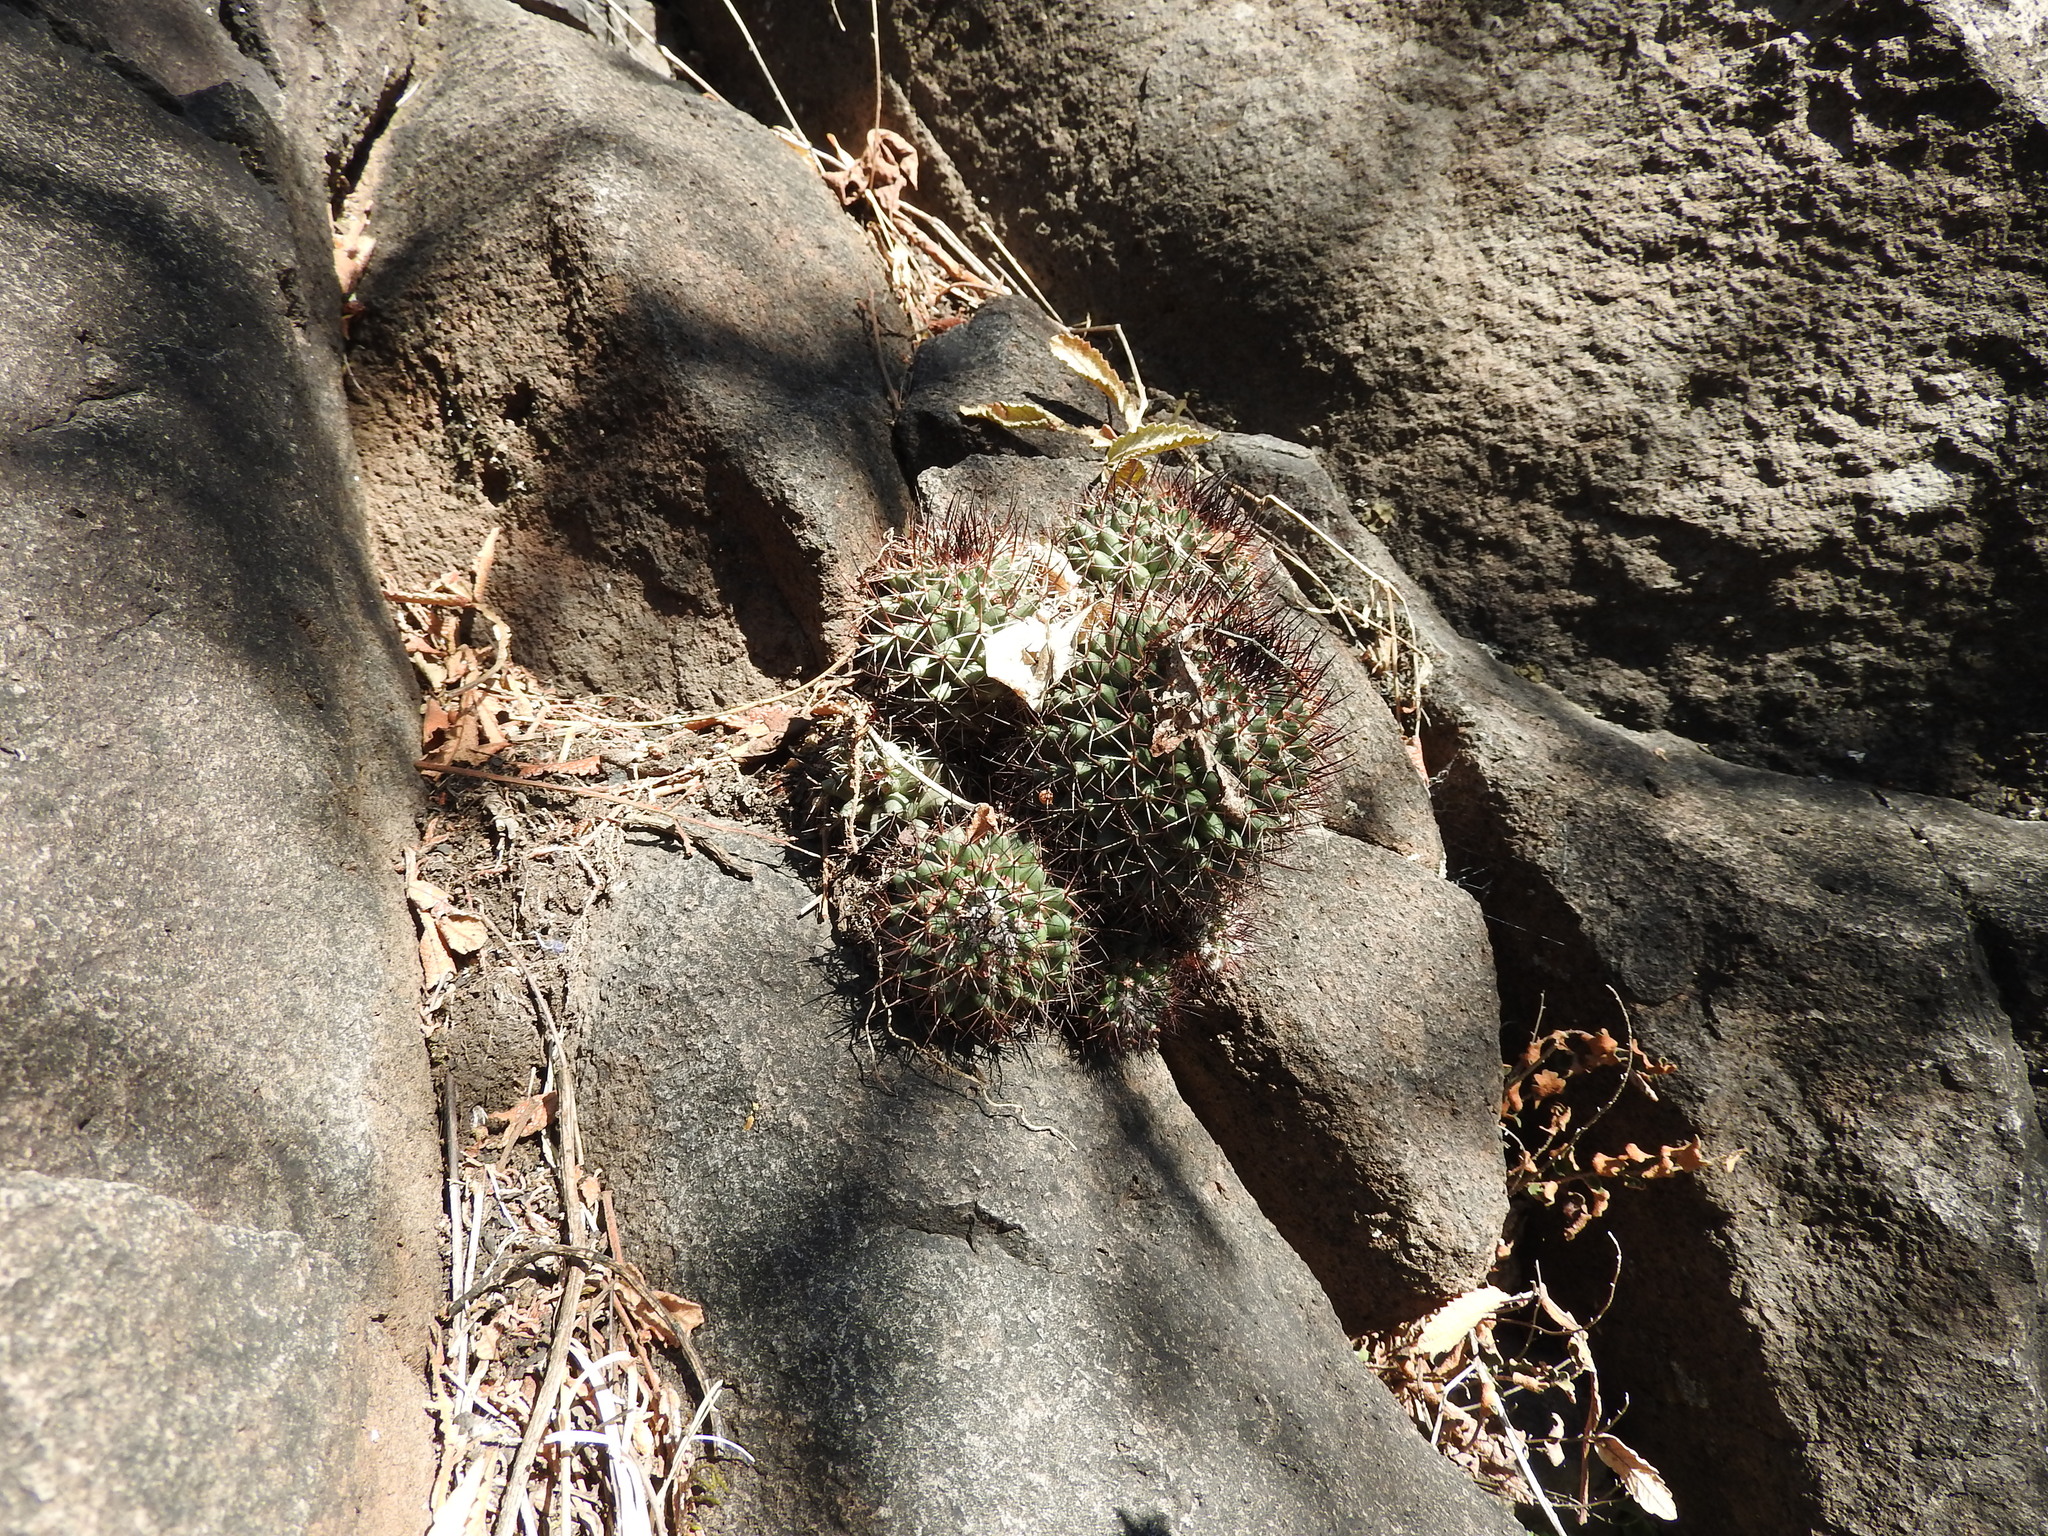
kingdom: Plantae
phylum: Tracheophyta
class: Magnoliopsida
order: Caryophyllales
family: Cactaceae
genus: Mammillaria
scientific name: Mammillaria polythele
